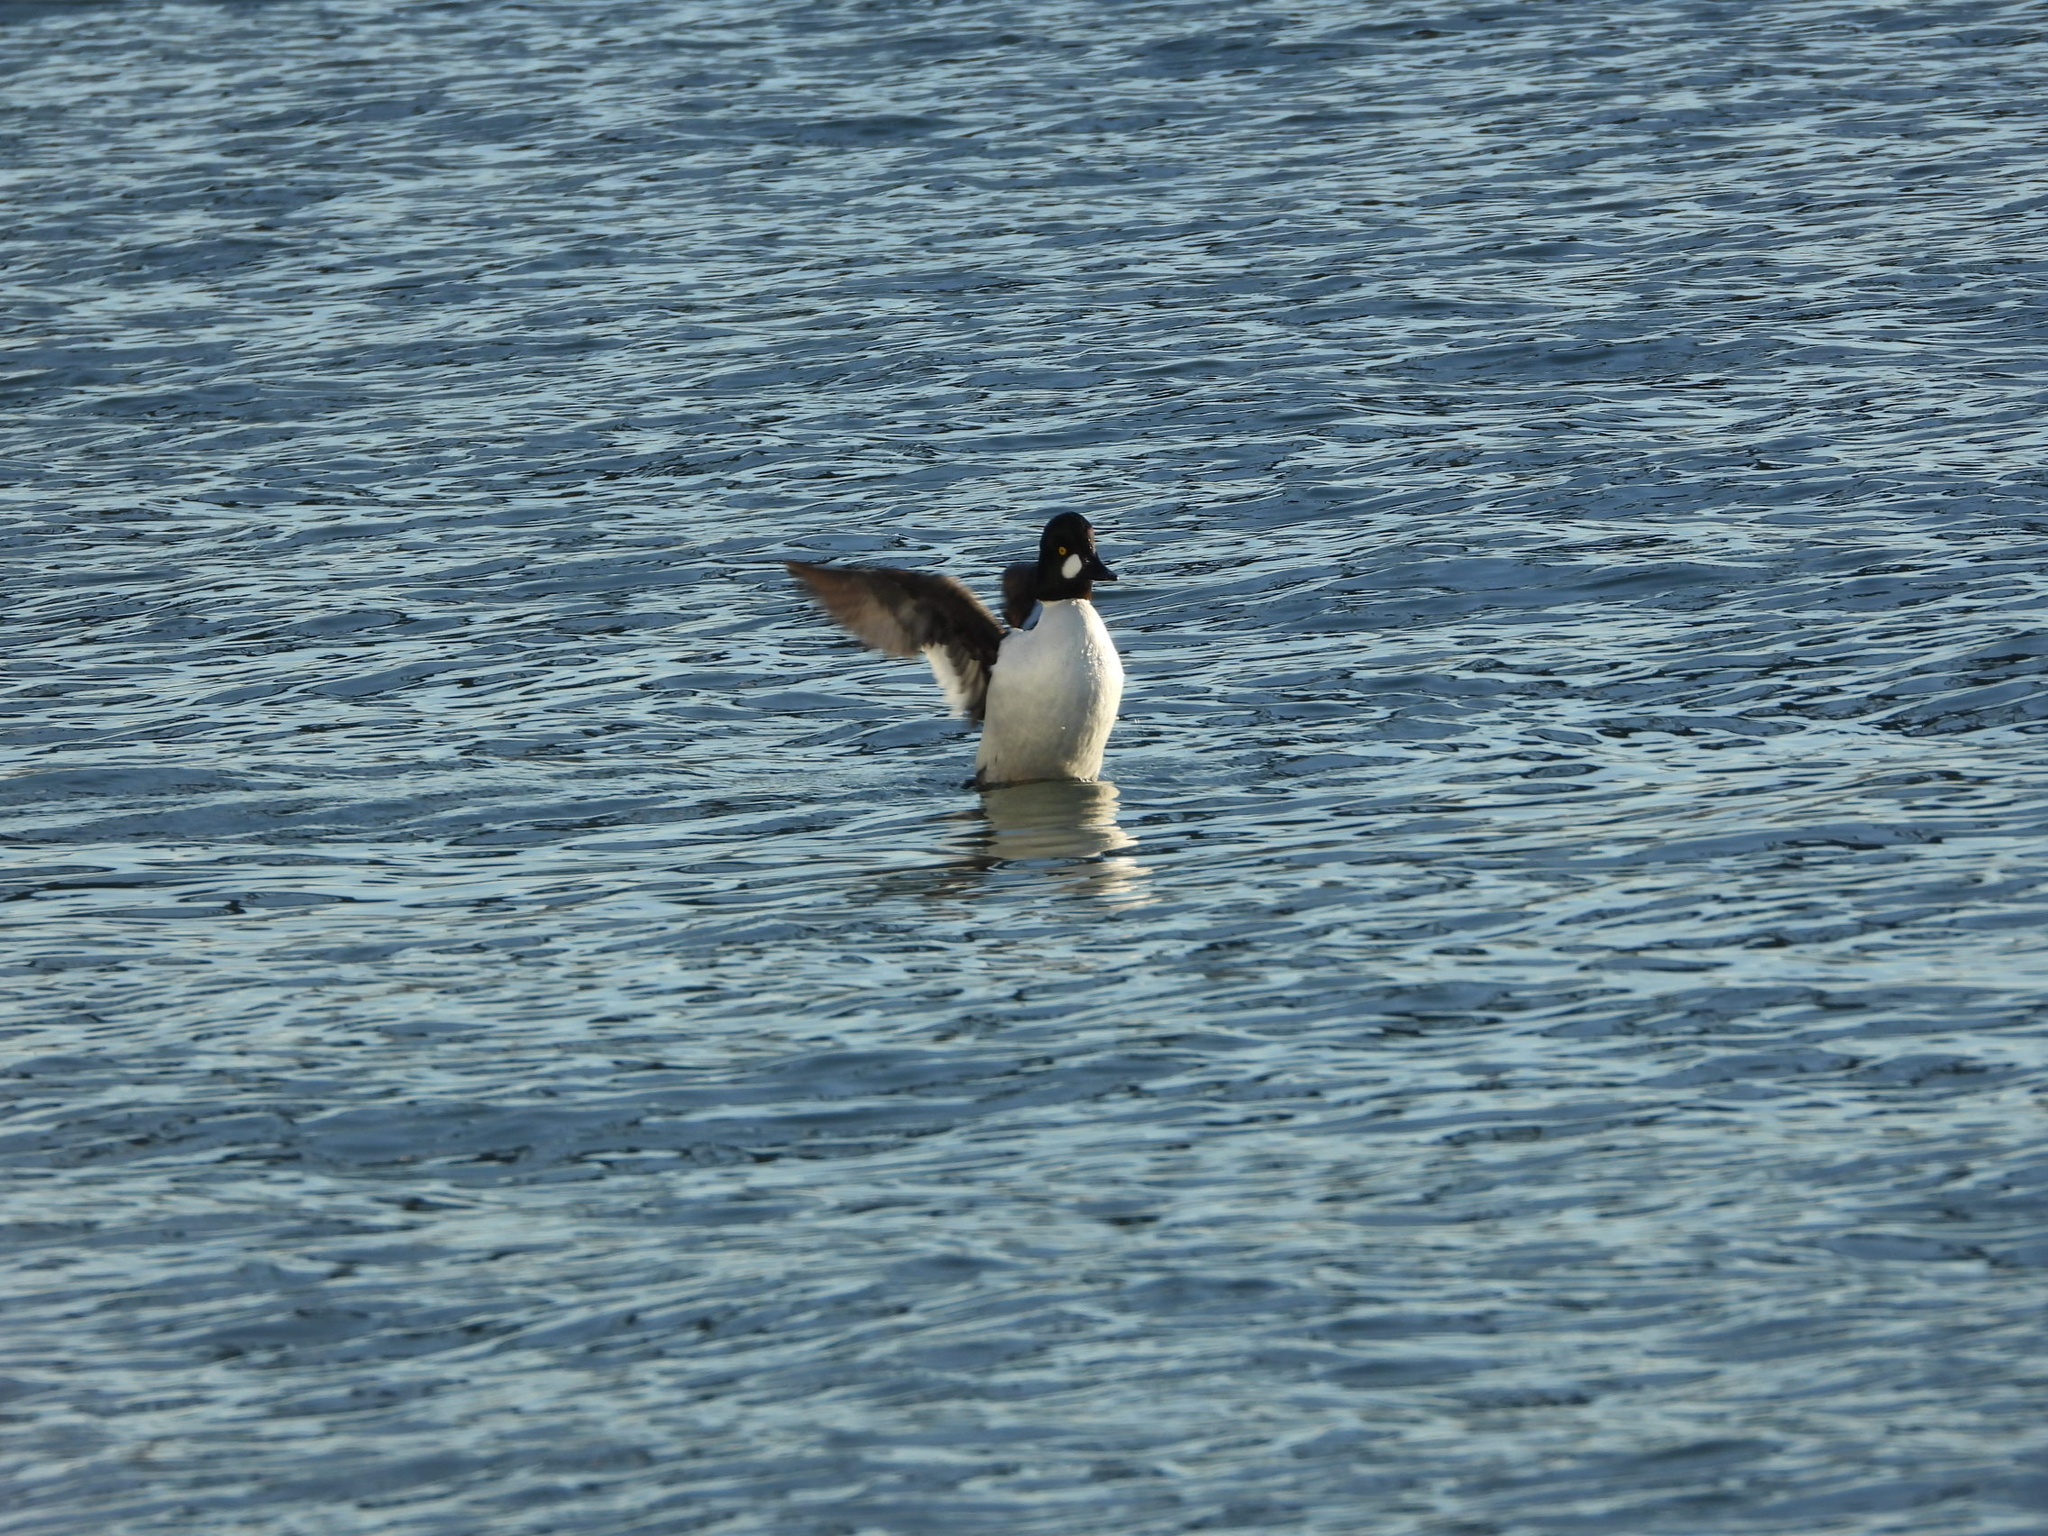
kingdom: Animalia
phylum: Chordata
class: Aves
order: Anseriformes
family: Anatidae
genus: Bucephala
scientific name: Bucephala clangula
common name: Common goldeneye
